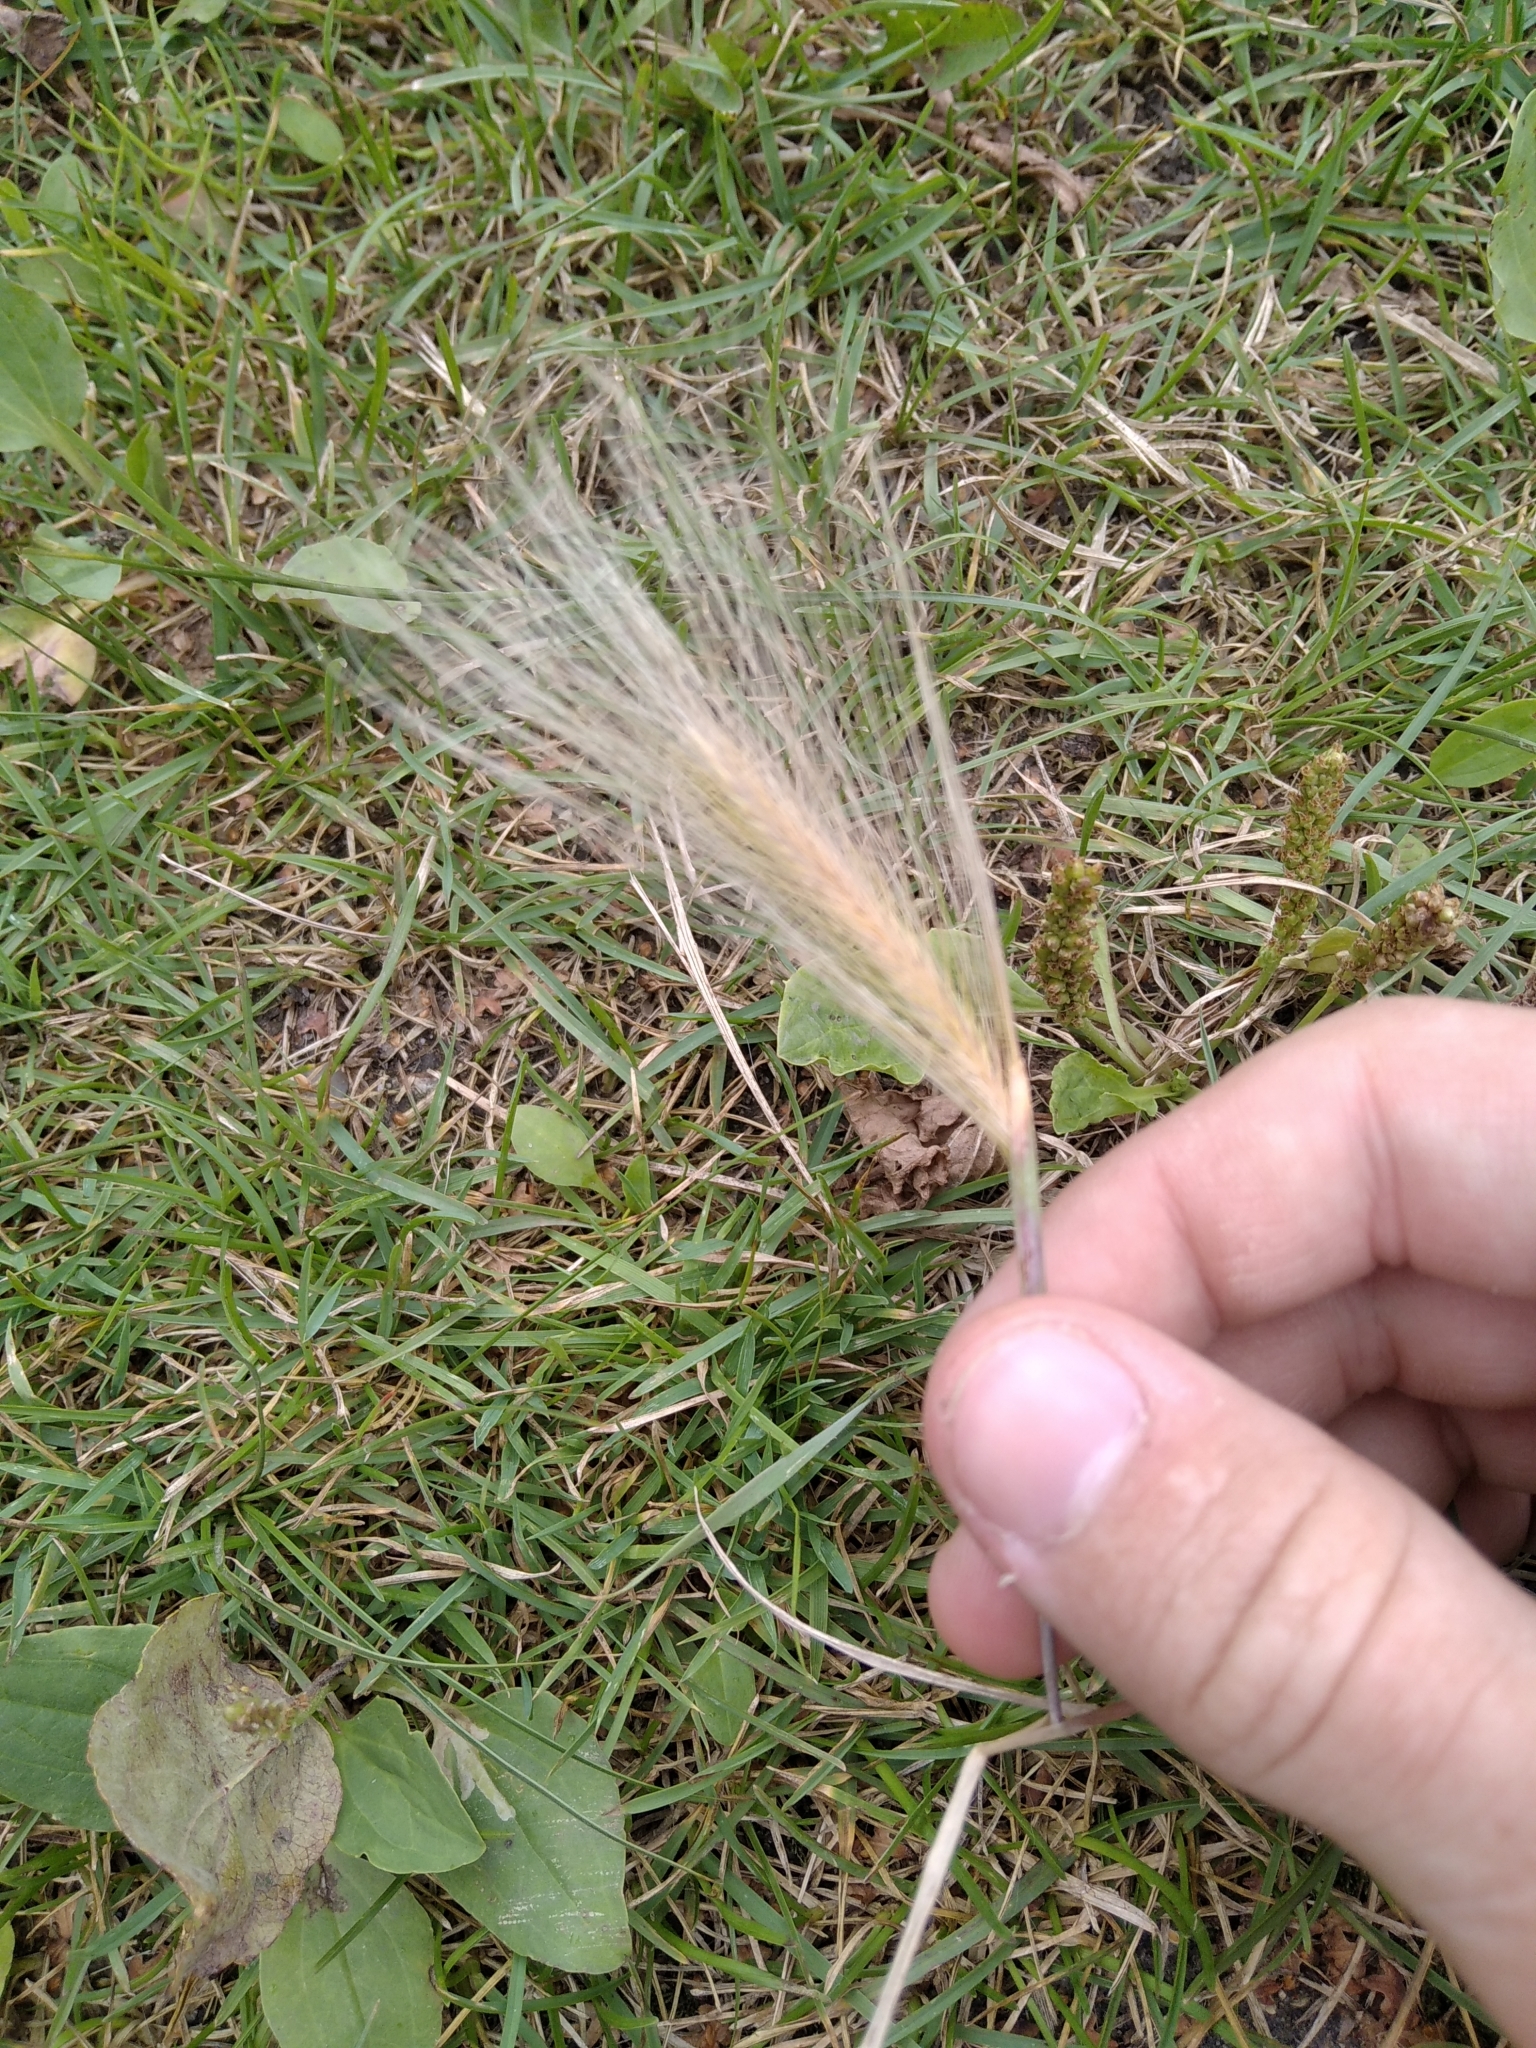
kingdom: Plantae
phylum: Tracheophyta
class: Liliopsida
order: Poales
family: Poaceae
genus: Hordeum
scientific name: Hordeum jubatum
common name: Foxtail barley
